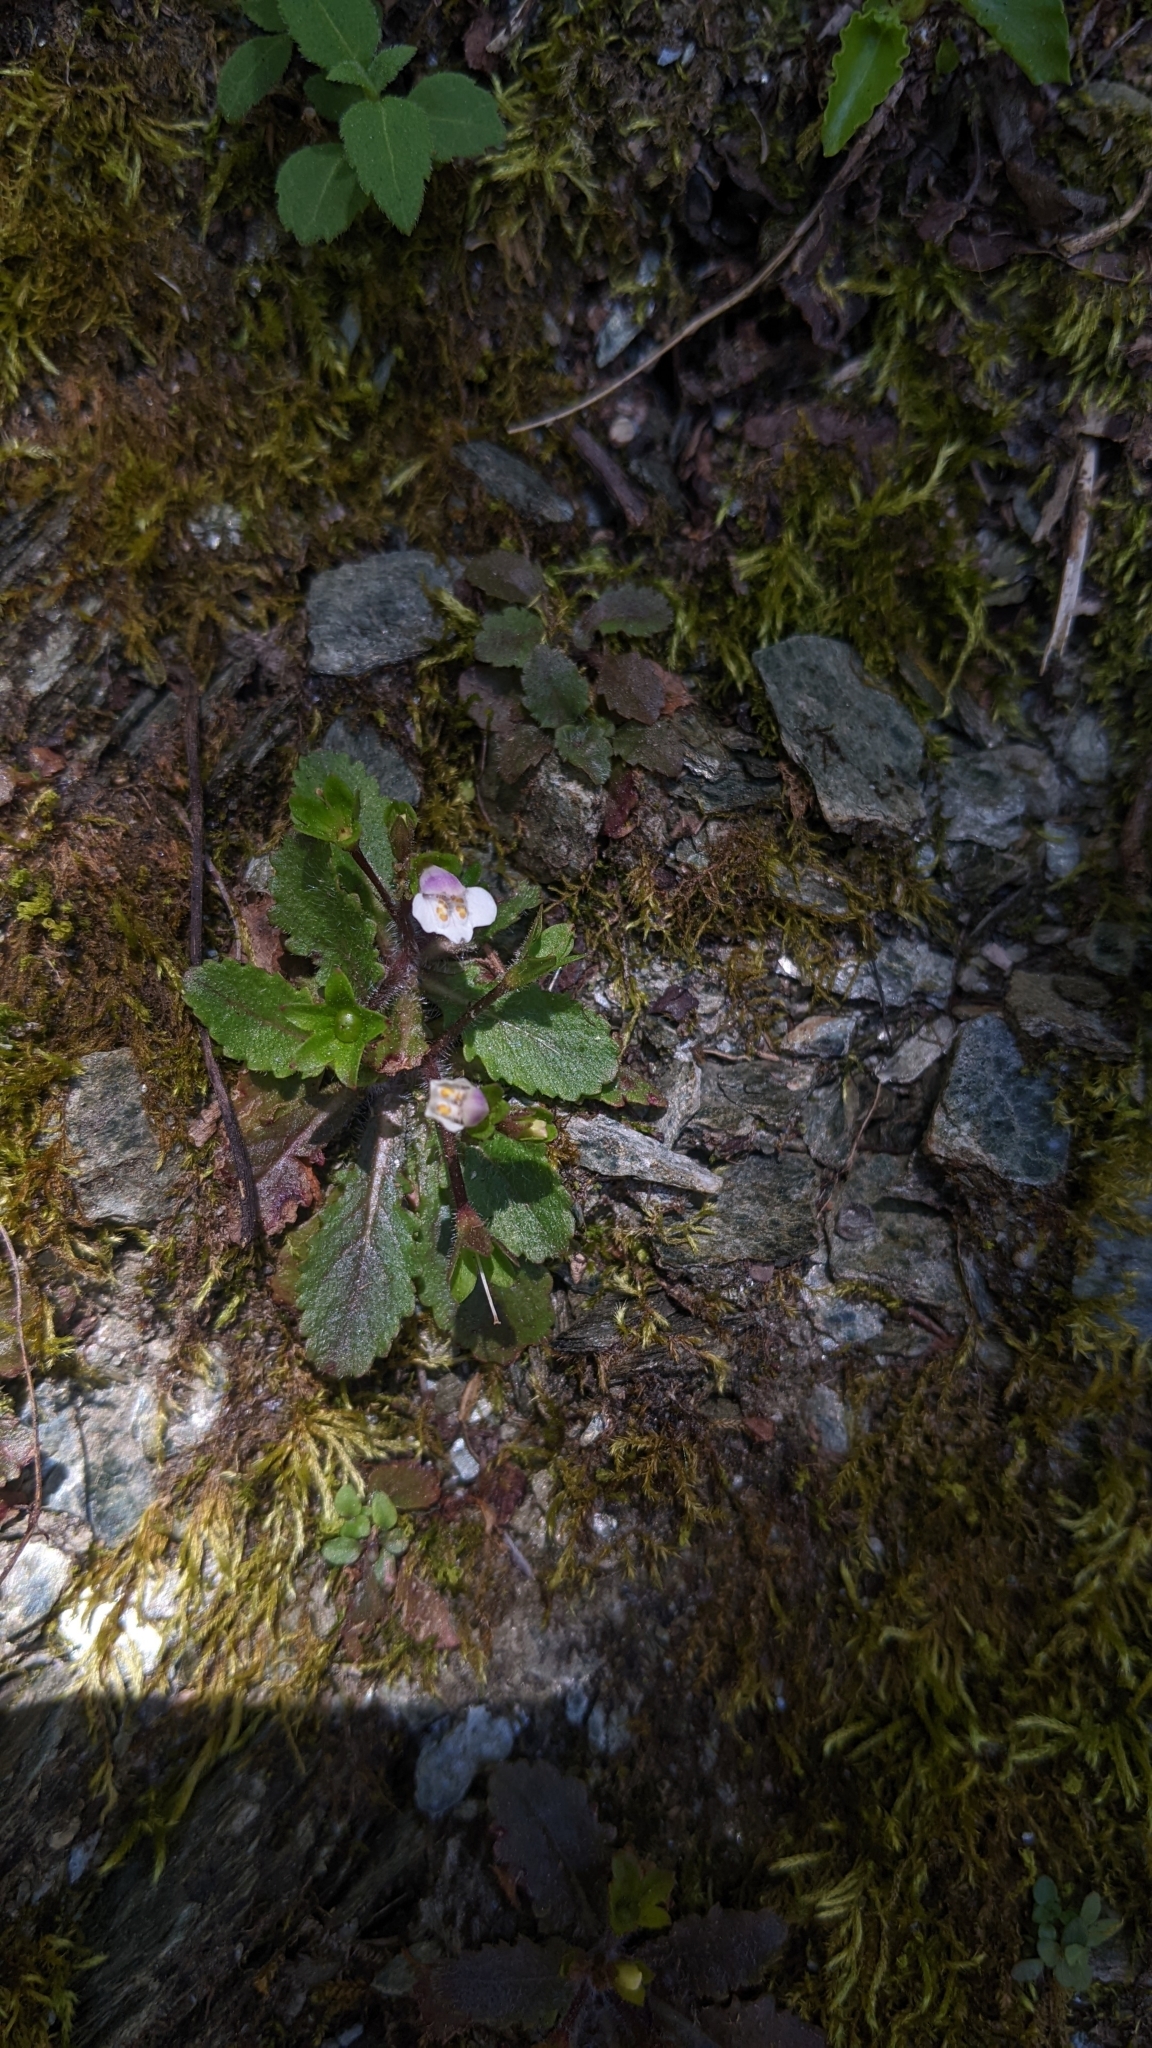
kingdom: Plantae
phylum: Tracheophyta
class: Magnoliopsida
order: Lamiales
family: Mazaceae
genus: Mazus
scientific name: Mazus goodeniifolius
